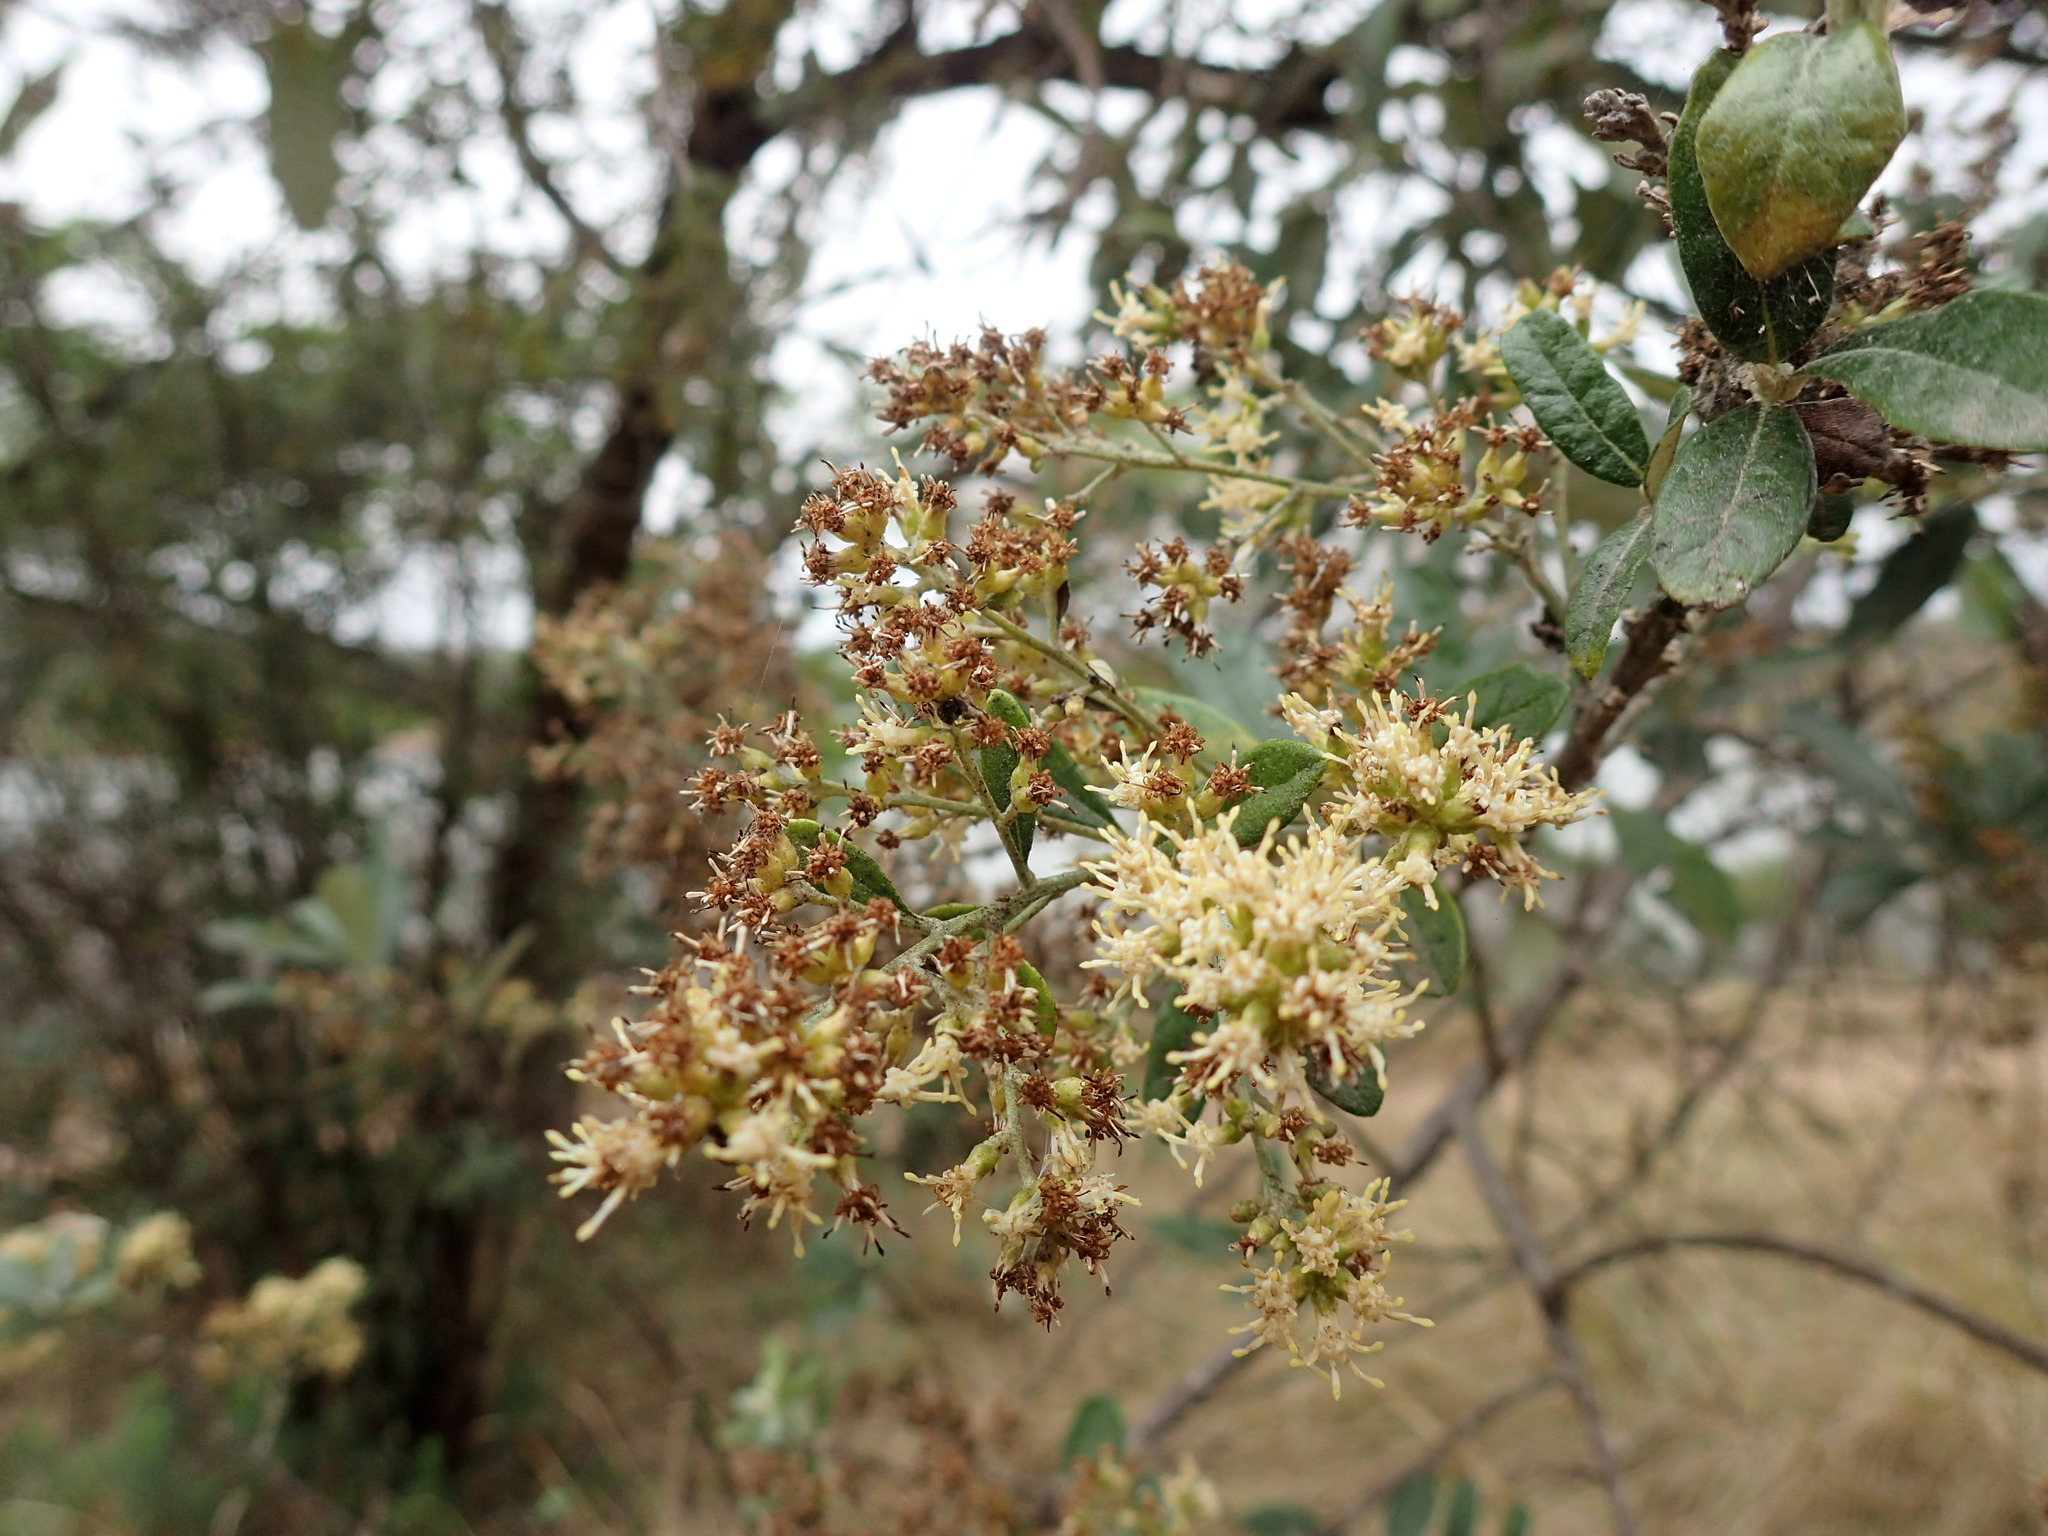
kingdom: Plantae
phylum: Tracheophyta
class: Magnoliopsida
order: Asterales
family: Asteraceae
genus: Brachylaena
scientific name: Brachylaena elliptica
